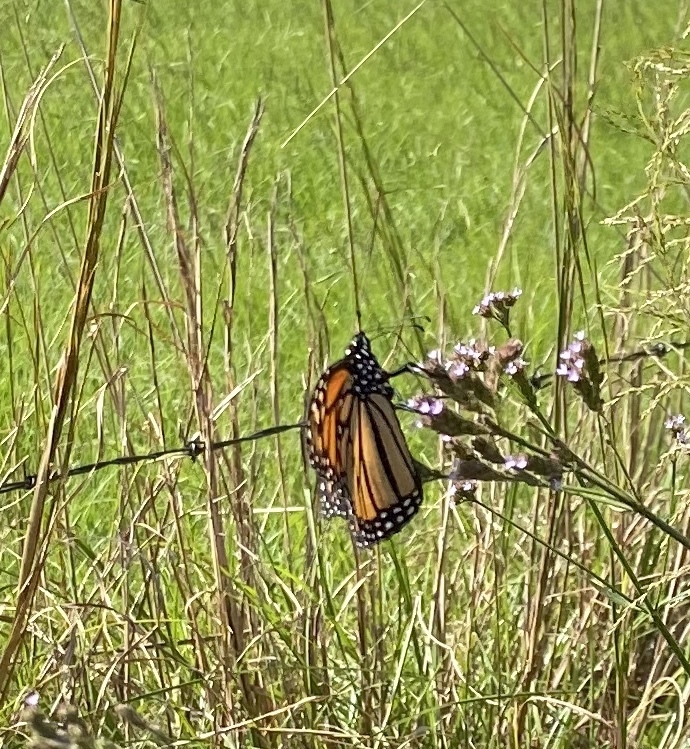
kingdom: Animalia
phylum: Arthropoda
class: Insecta
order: Lepidoptera
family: Nymphalidae
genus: Danaus
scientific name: Danaus plexippus
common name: Monarch
